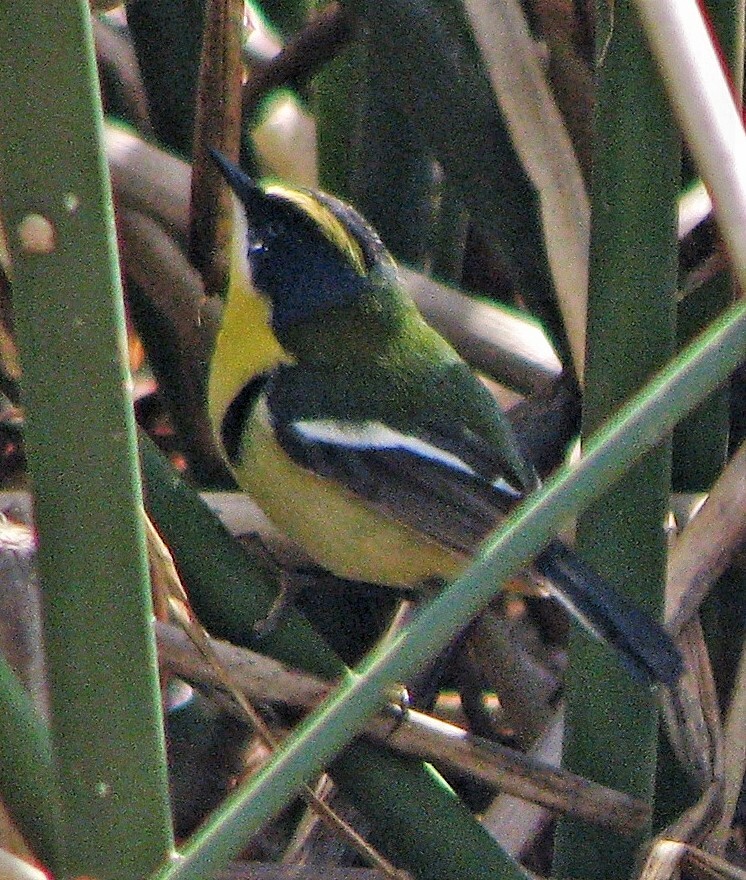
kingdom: Animalia
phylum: Chordata
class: Aves
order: Passeriformes
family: Tyrannidae
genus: Tachuris
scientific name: Tachuris rubrigastra
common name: Many-colored rush tyrant
